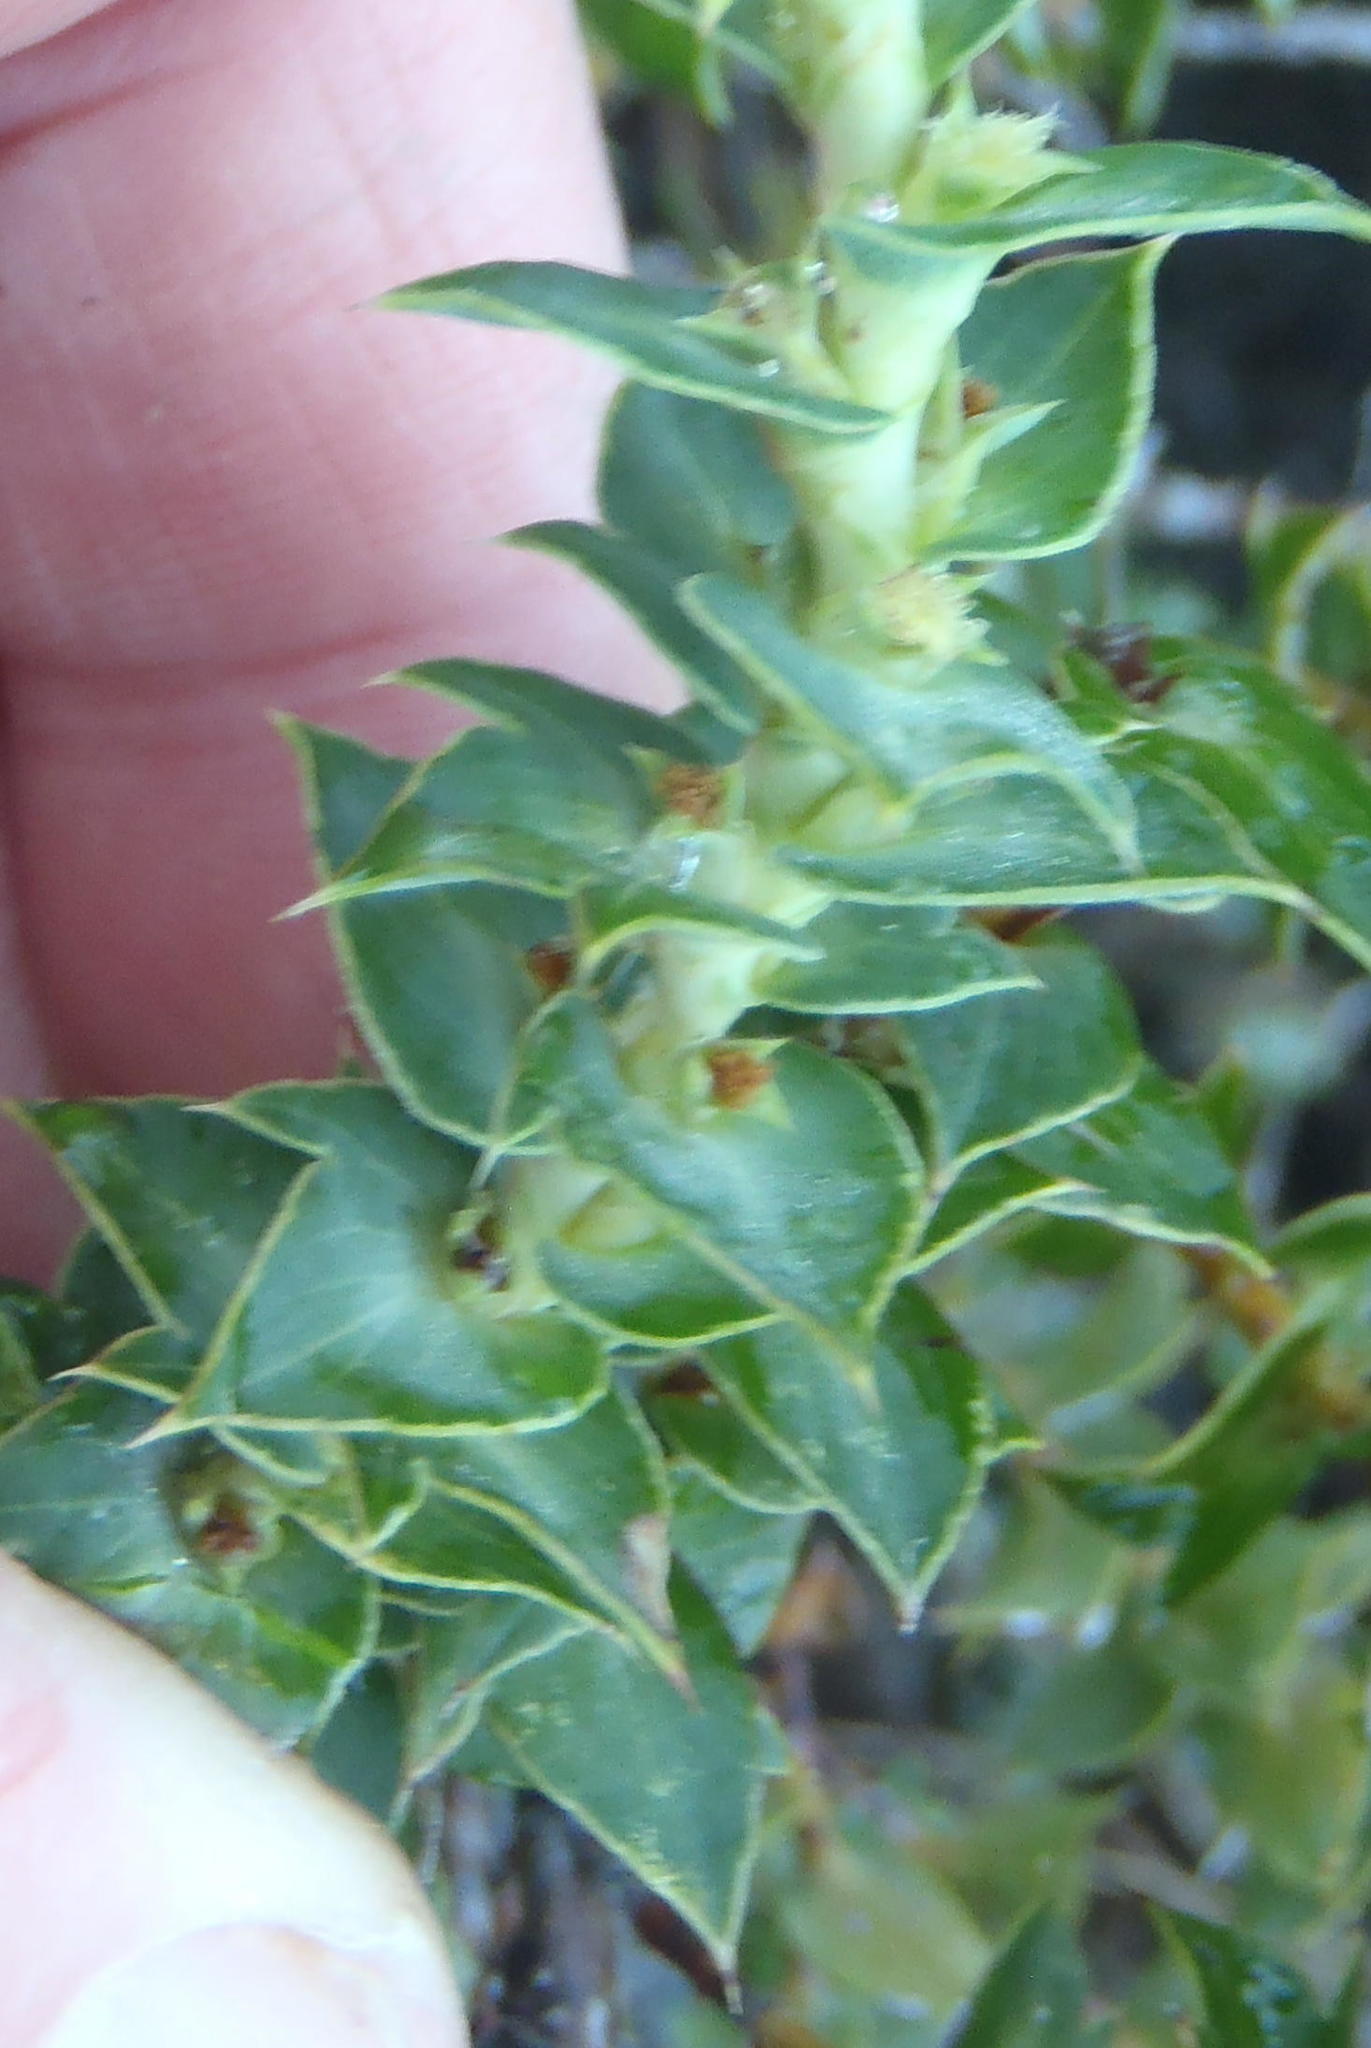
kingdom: Plantae
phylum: Tracheophyta
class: Magnoliopsida
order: Rosales
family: Rosaceae
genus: Cliffortia
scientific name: Cliffortia ilicifolia
